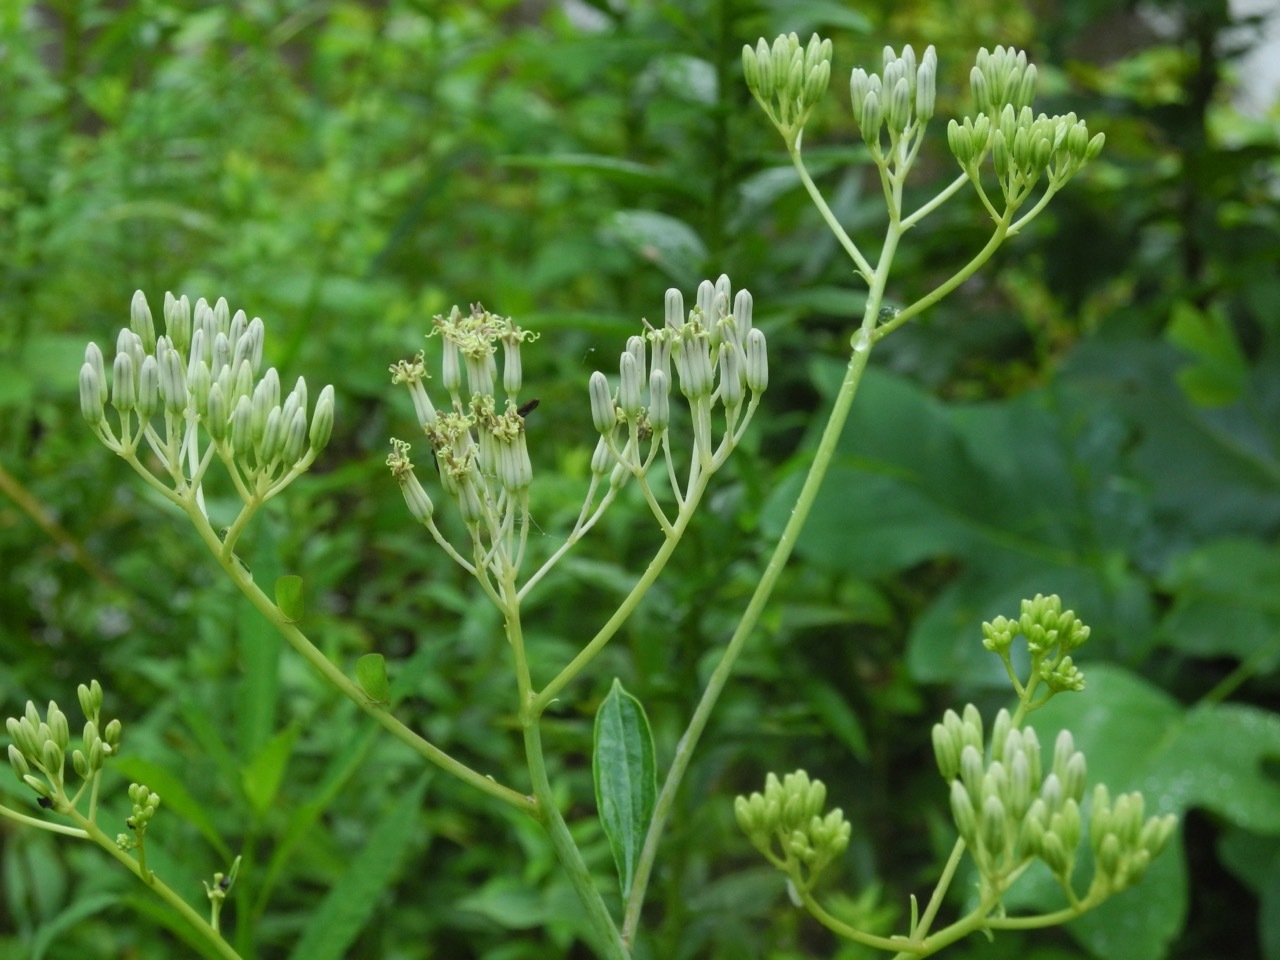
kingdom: Plantae
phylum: Tracheophyta
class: Magnoliopsida
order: Asterales
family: Asteraceae
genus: Arnoglossum
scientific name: Arnoglossum atriplicifolium
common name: Pale indian-plantain
